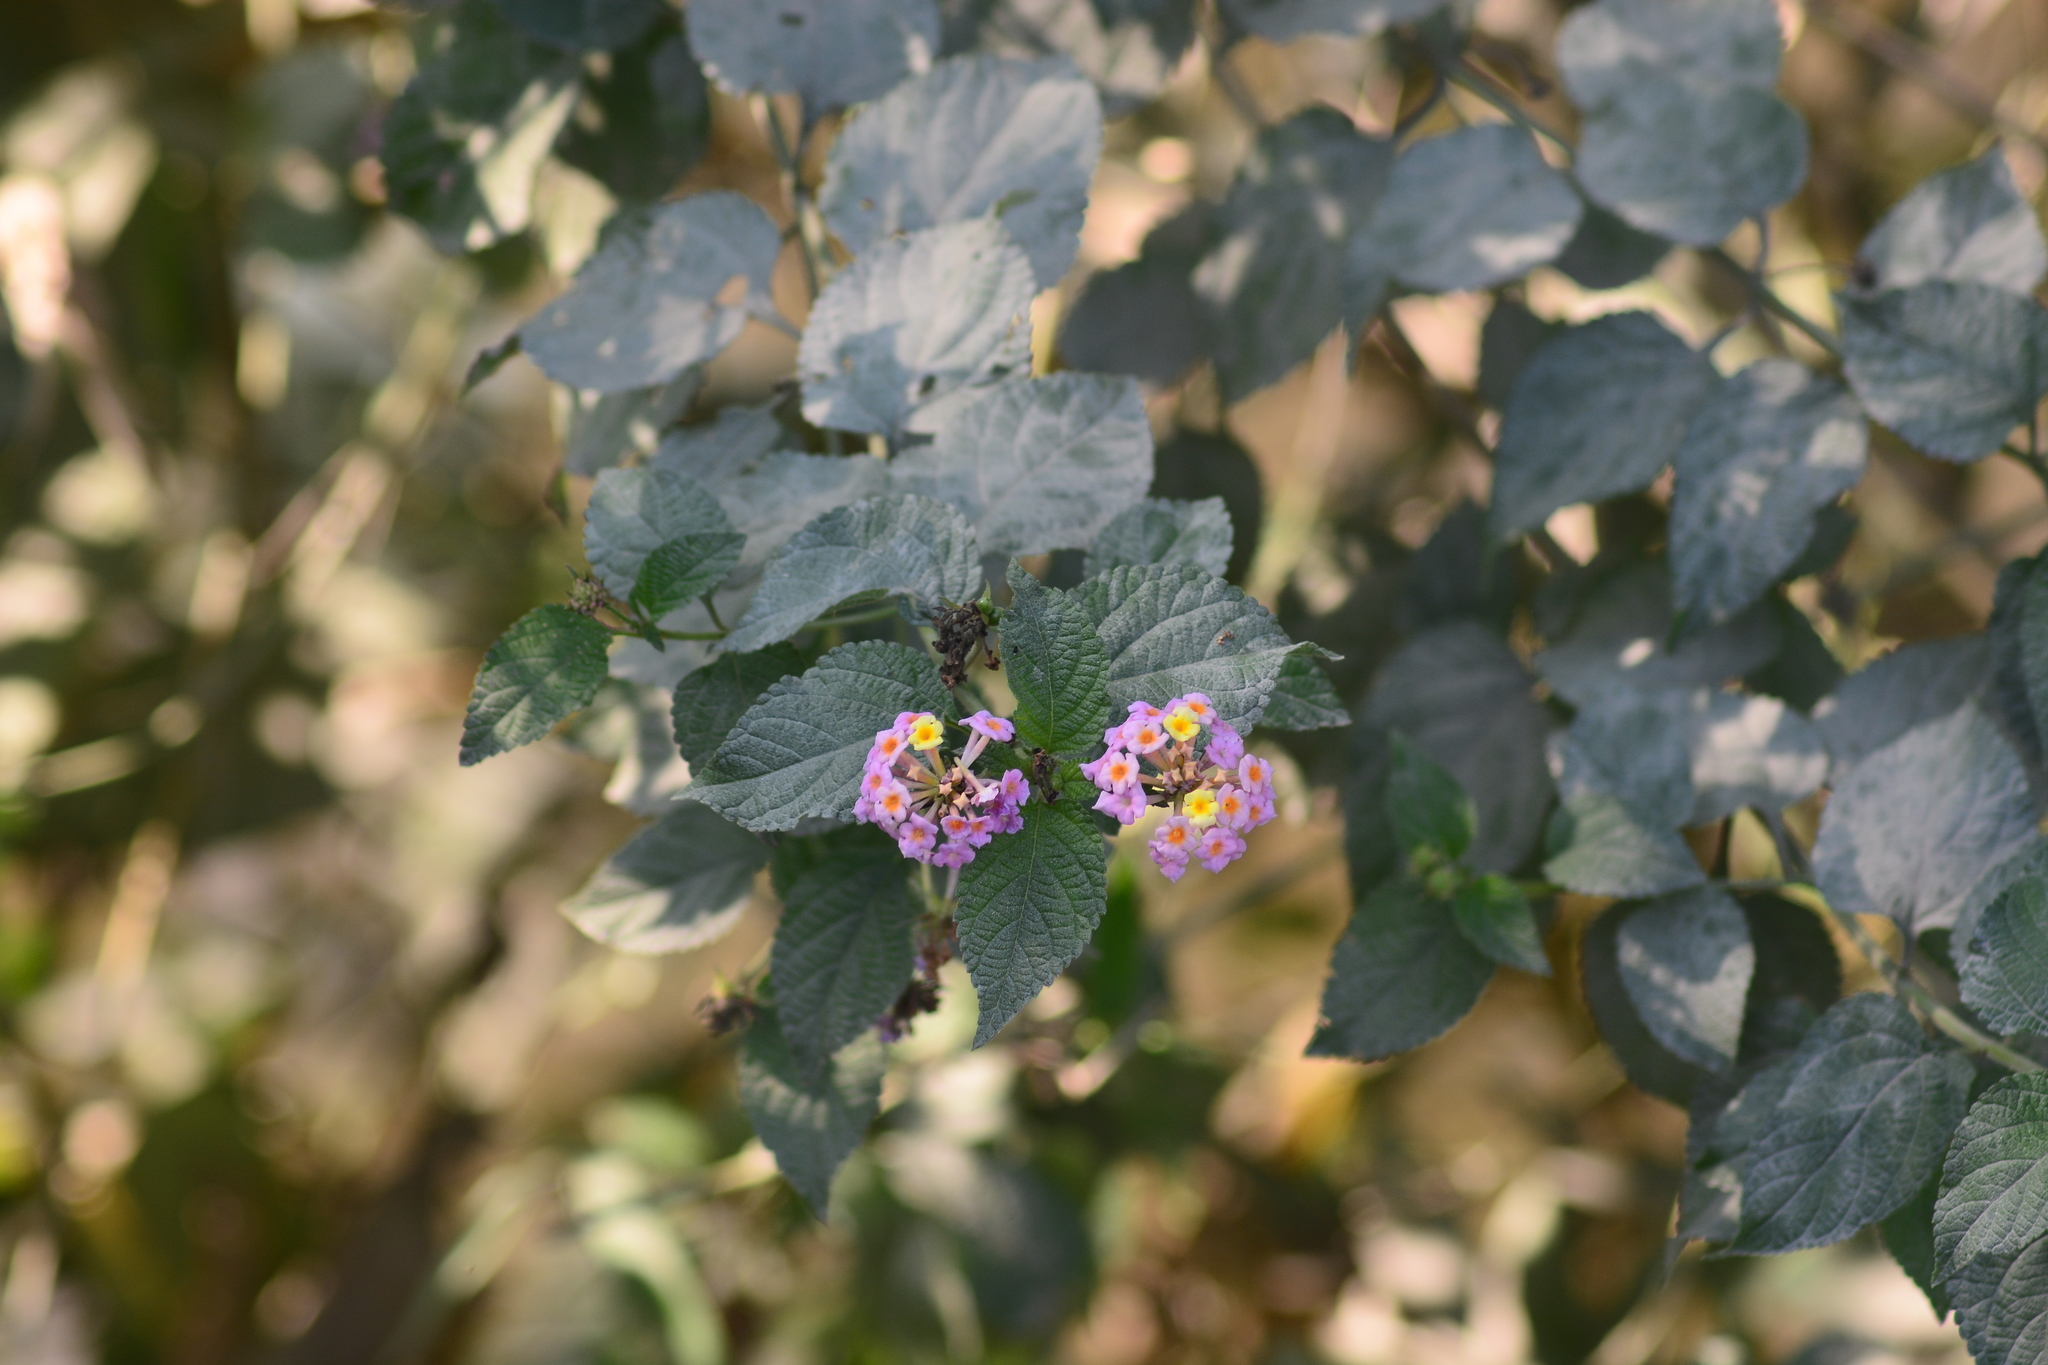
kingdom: Plantae
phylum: Tracheophyta
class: Magnoliopsida
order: Lamiales
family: Verbenaceae
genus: Lantana
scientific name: Lantana camara
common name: Lantana
